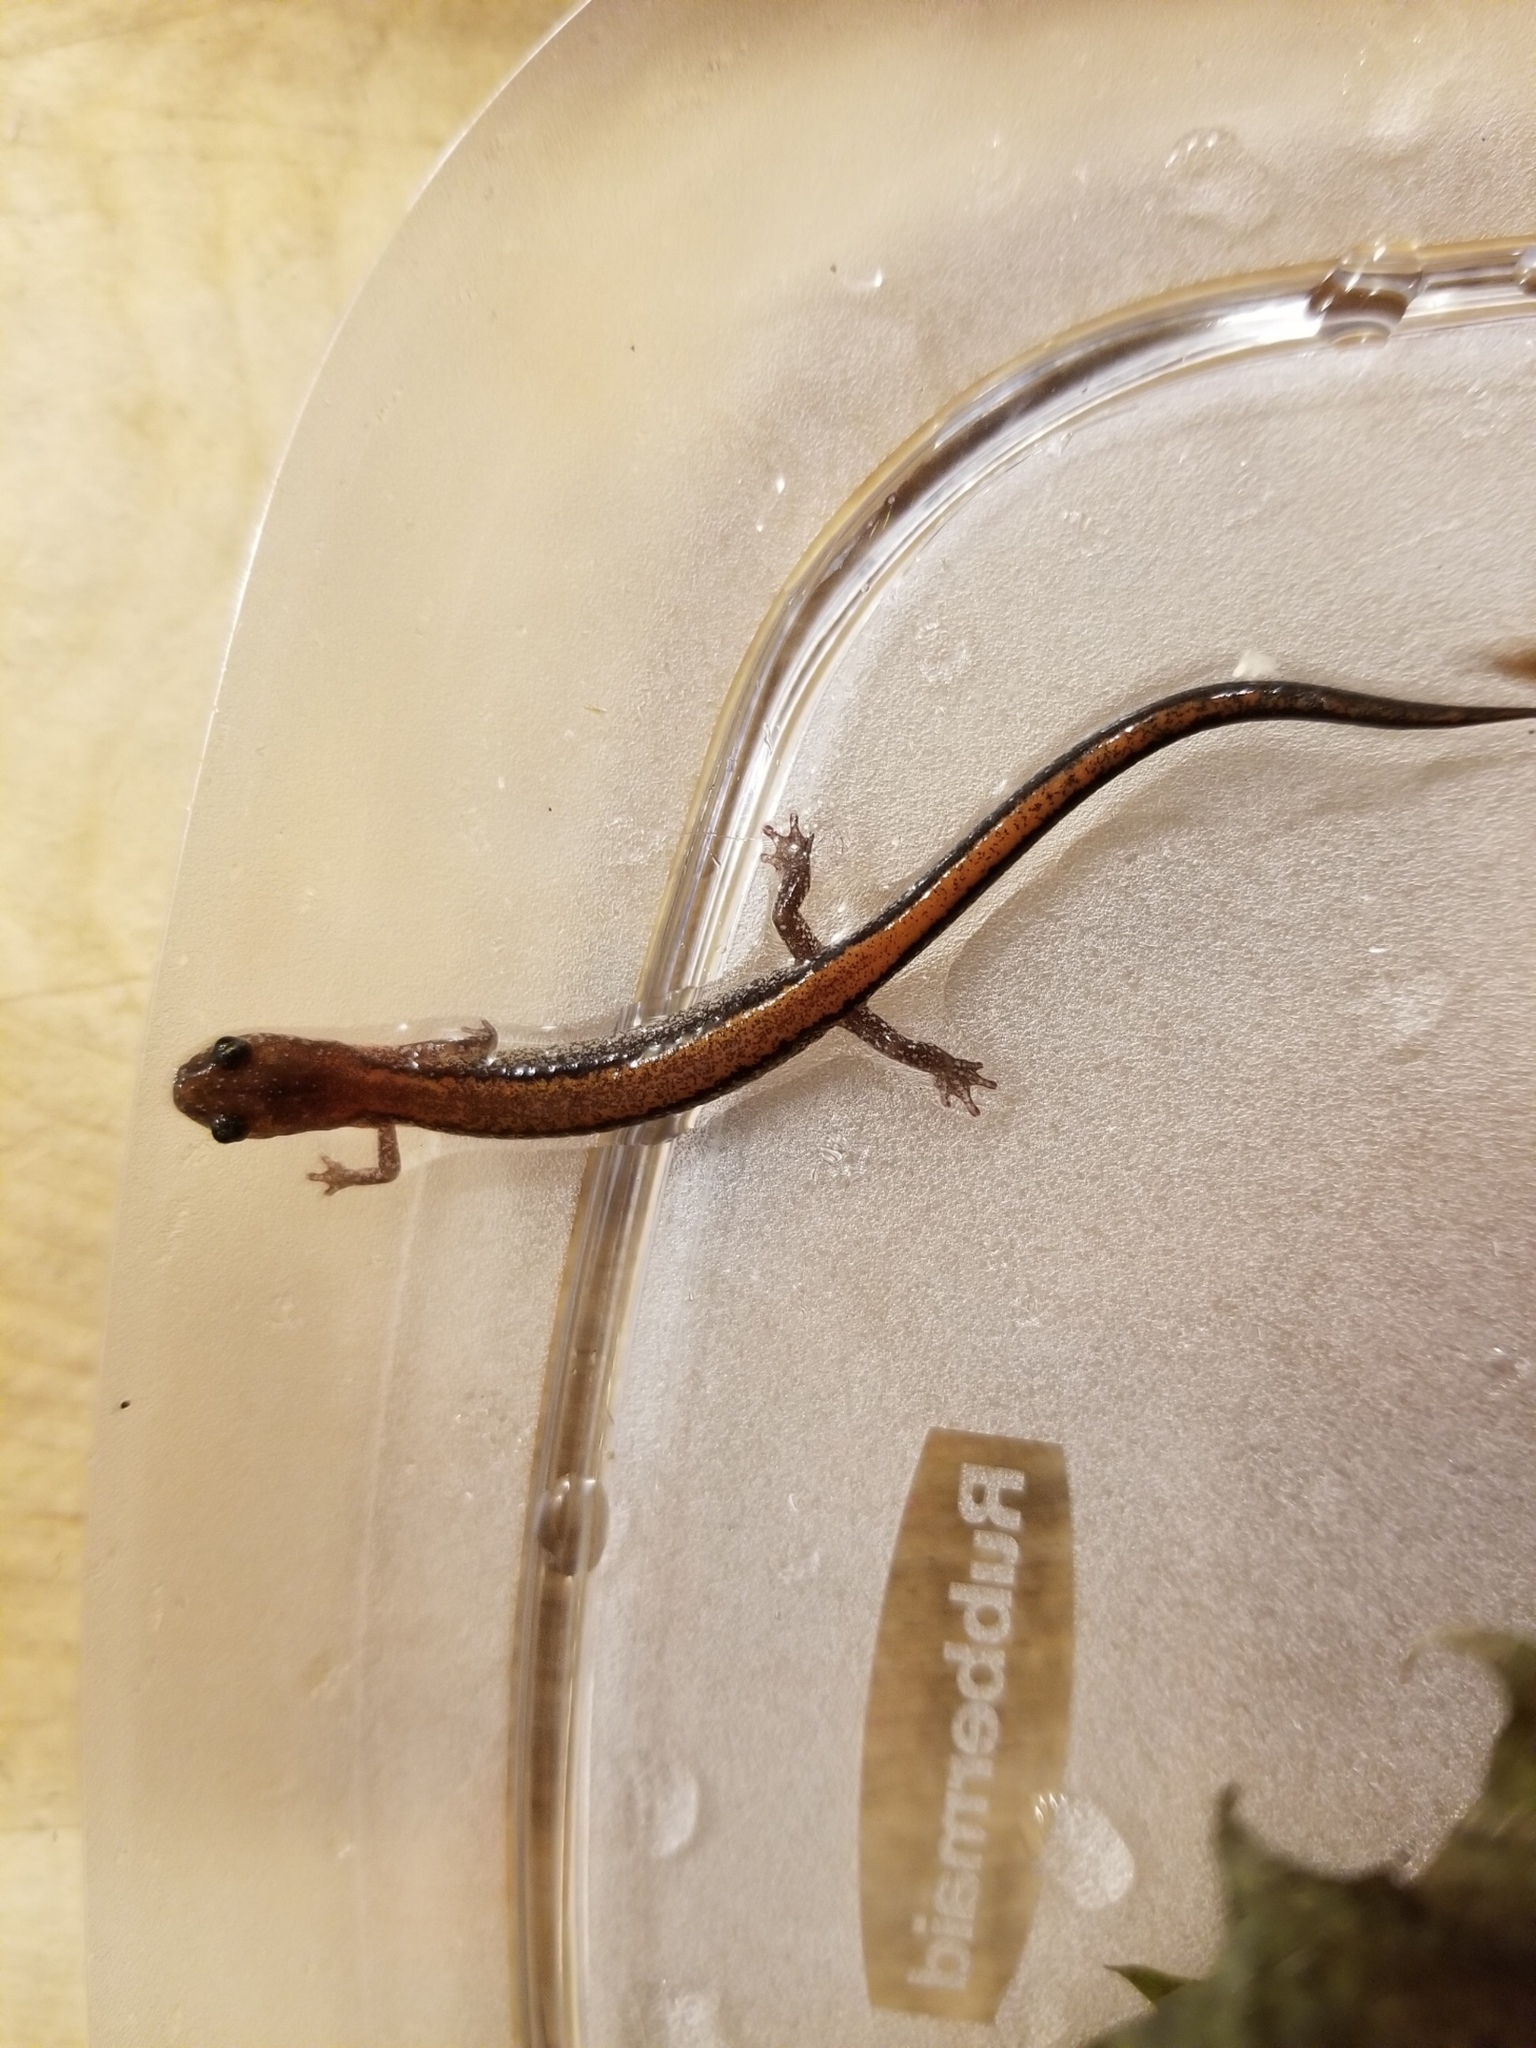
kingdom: Animalia
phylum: Chordata
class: Amphibia
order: Caudata
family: Plethodontidae
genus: Plethodon
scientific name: Plethodon cinereus
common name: Redback salamander
